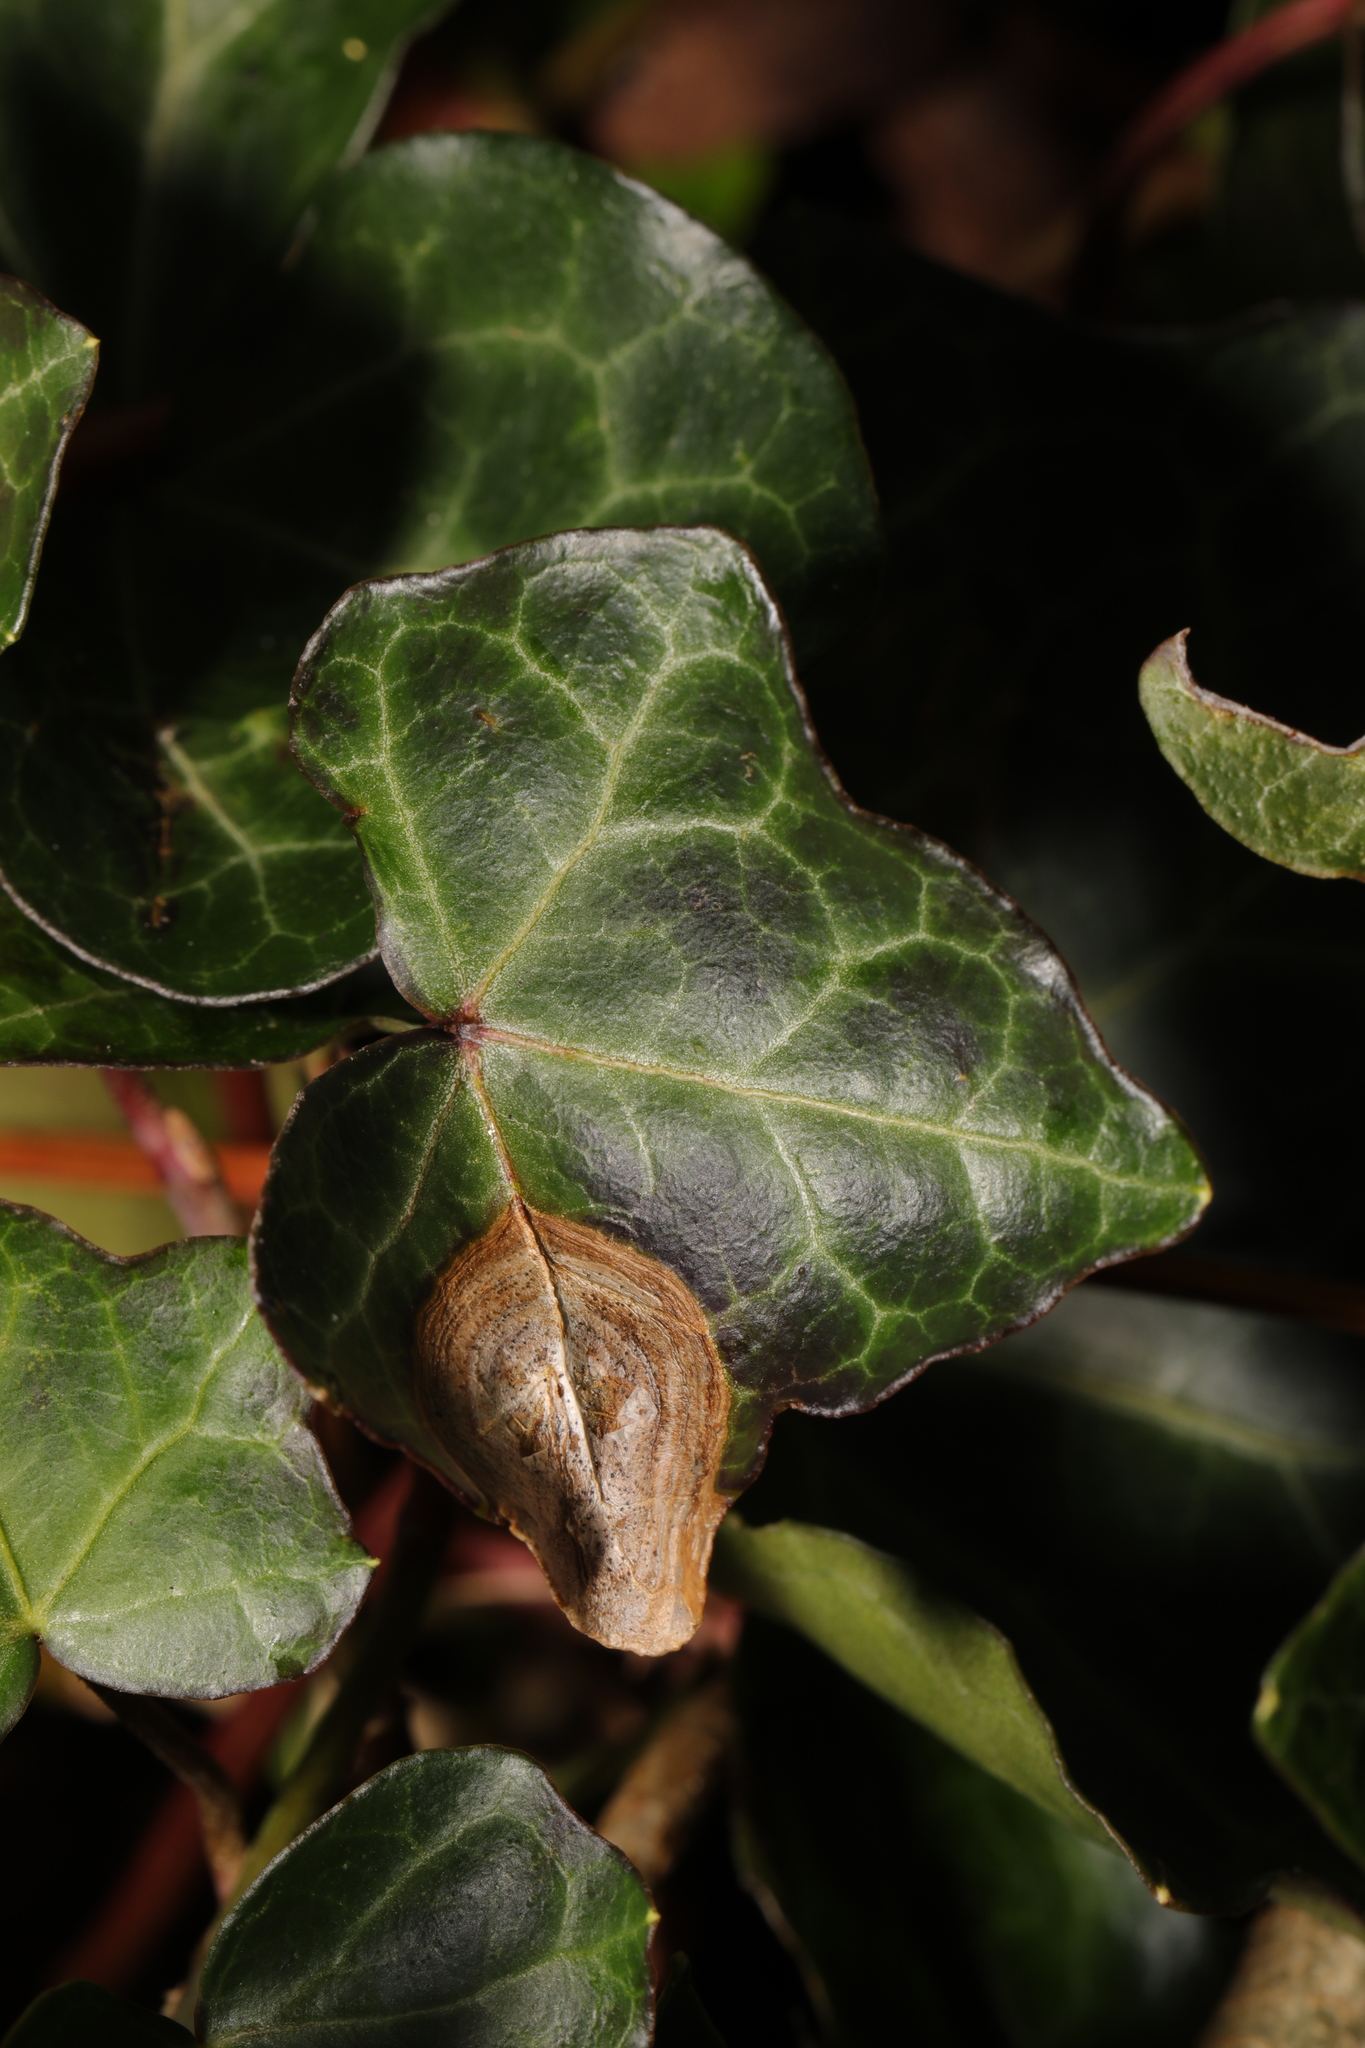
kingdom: Fungi
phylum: Ascomycota
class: Dothideomycetes
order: Pleosporales
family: Didymellaceae
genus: Boeremia
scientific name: Boeremia hedericola
